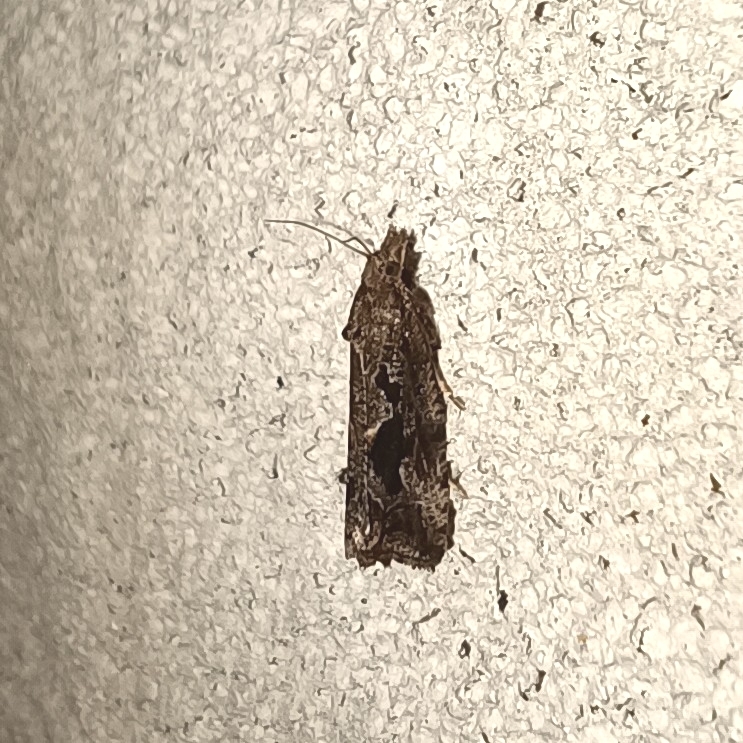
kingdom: Animalia
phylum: Arthropoda
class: Insecta
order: Lepidoptera
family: Tortricidae
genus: Endothenia
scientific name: Endothenia quadrimaculana
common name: Tortricid moth
